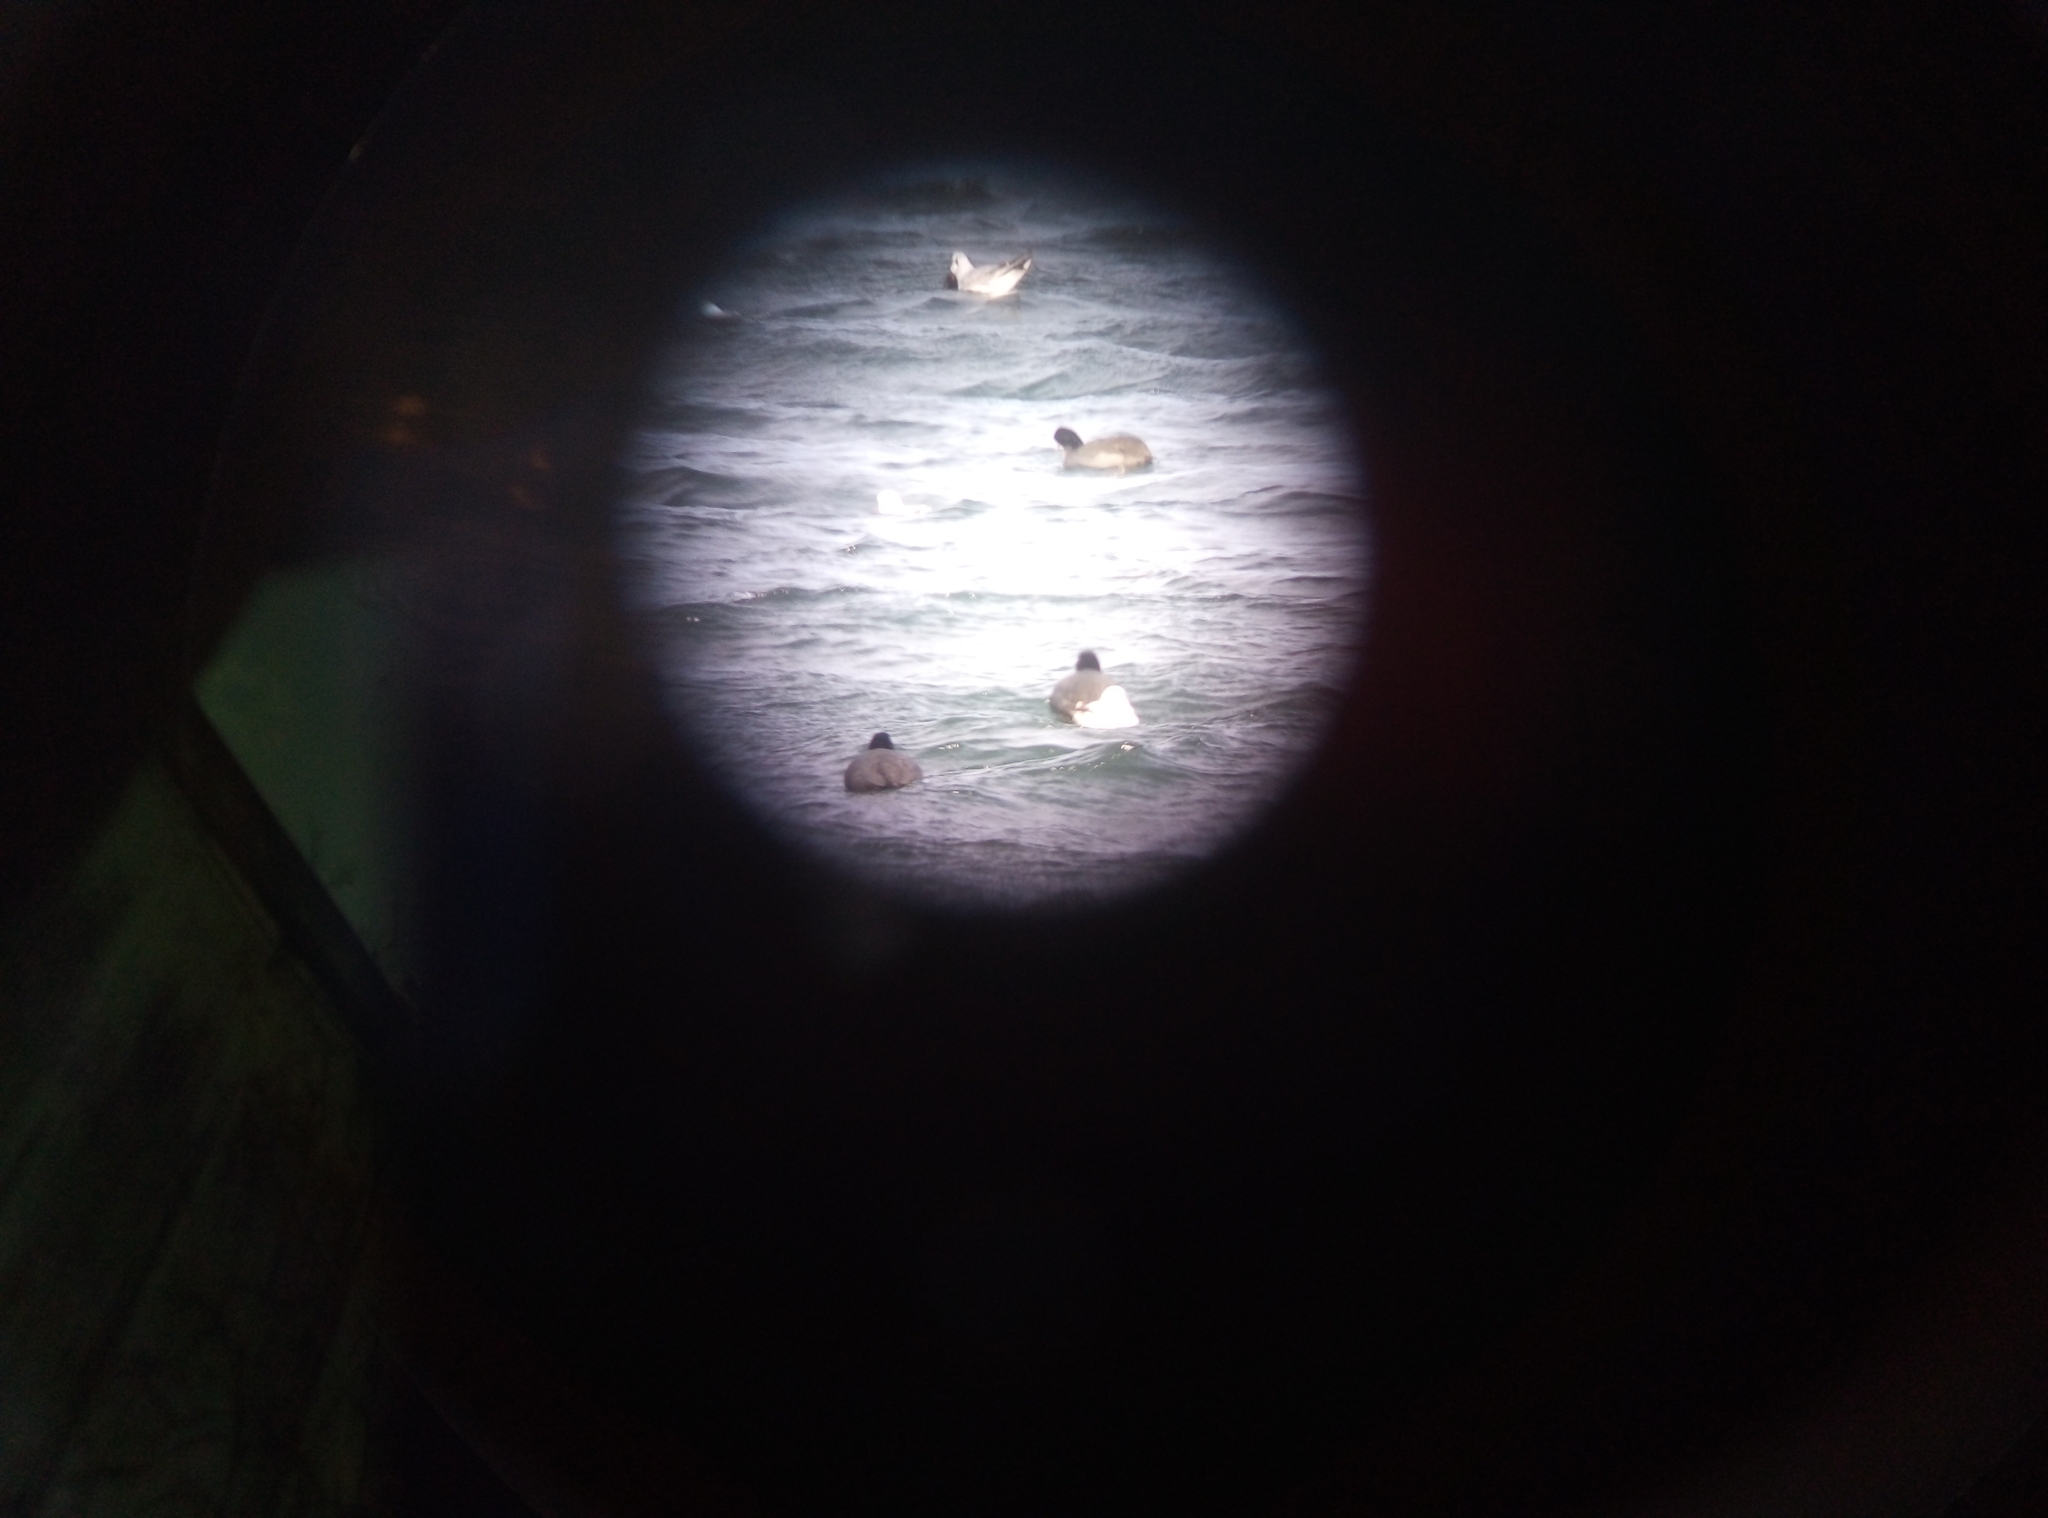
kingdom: Animalia
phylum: Chordata
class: Aves
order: Gruiformes
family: Rallidae
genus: Fulica
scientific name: Fulica atra
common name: Eurasian coot
